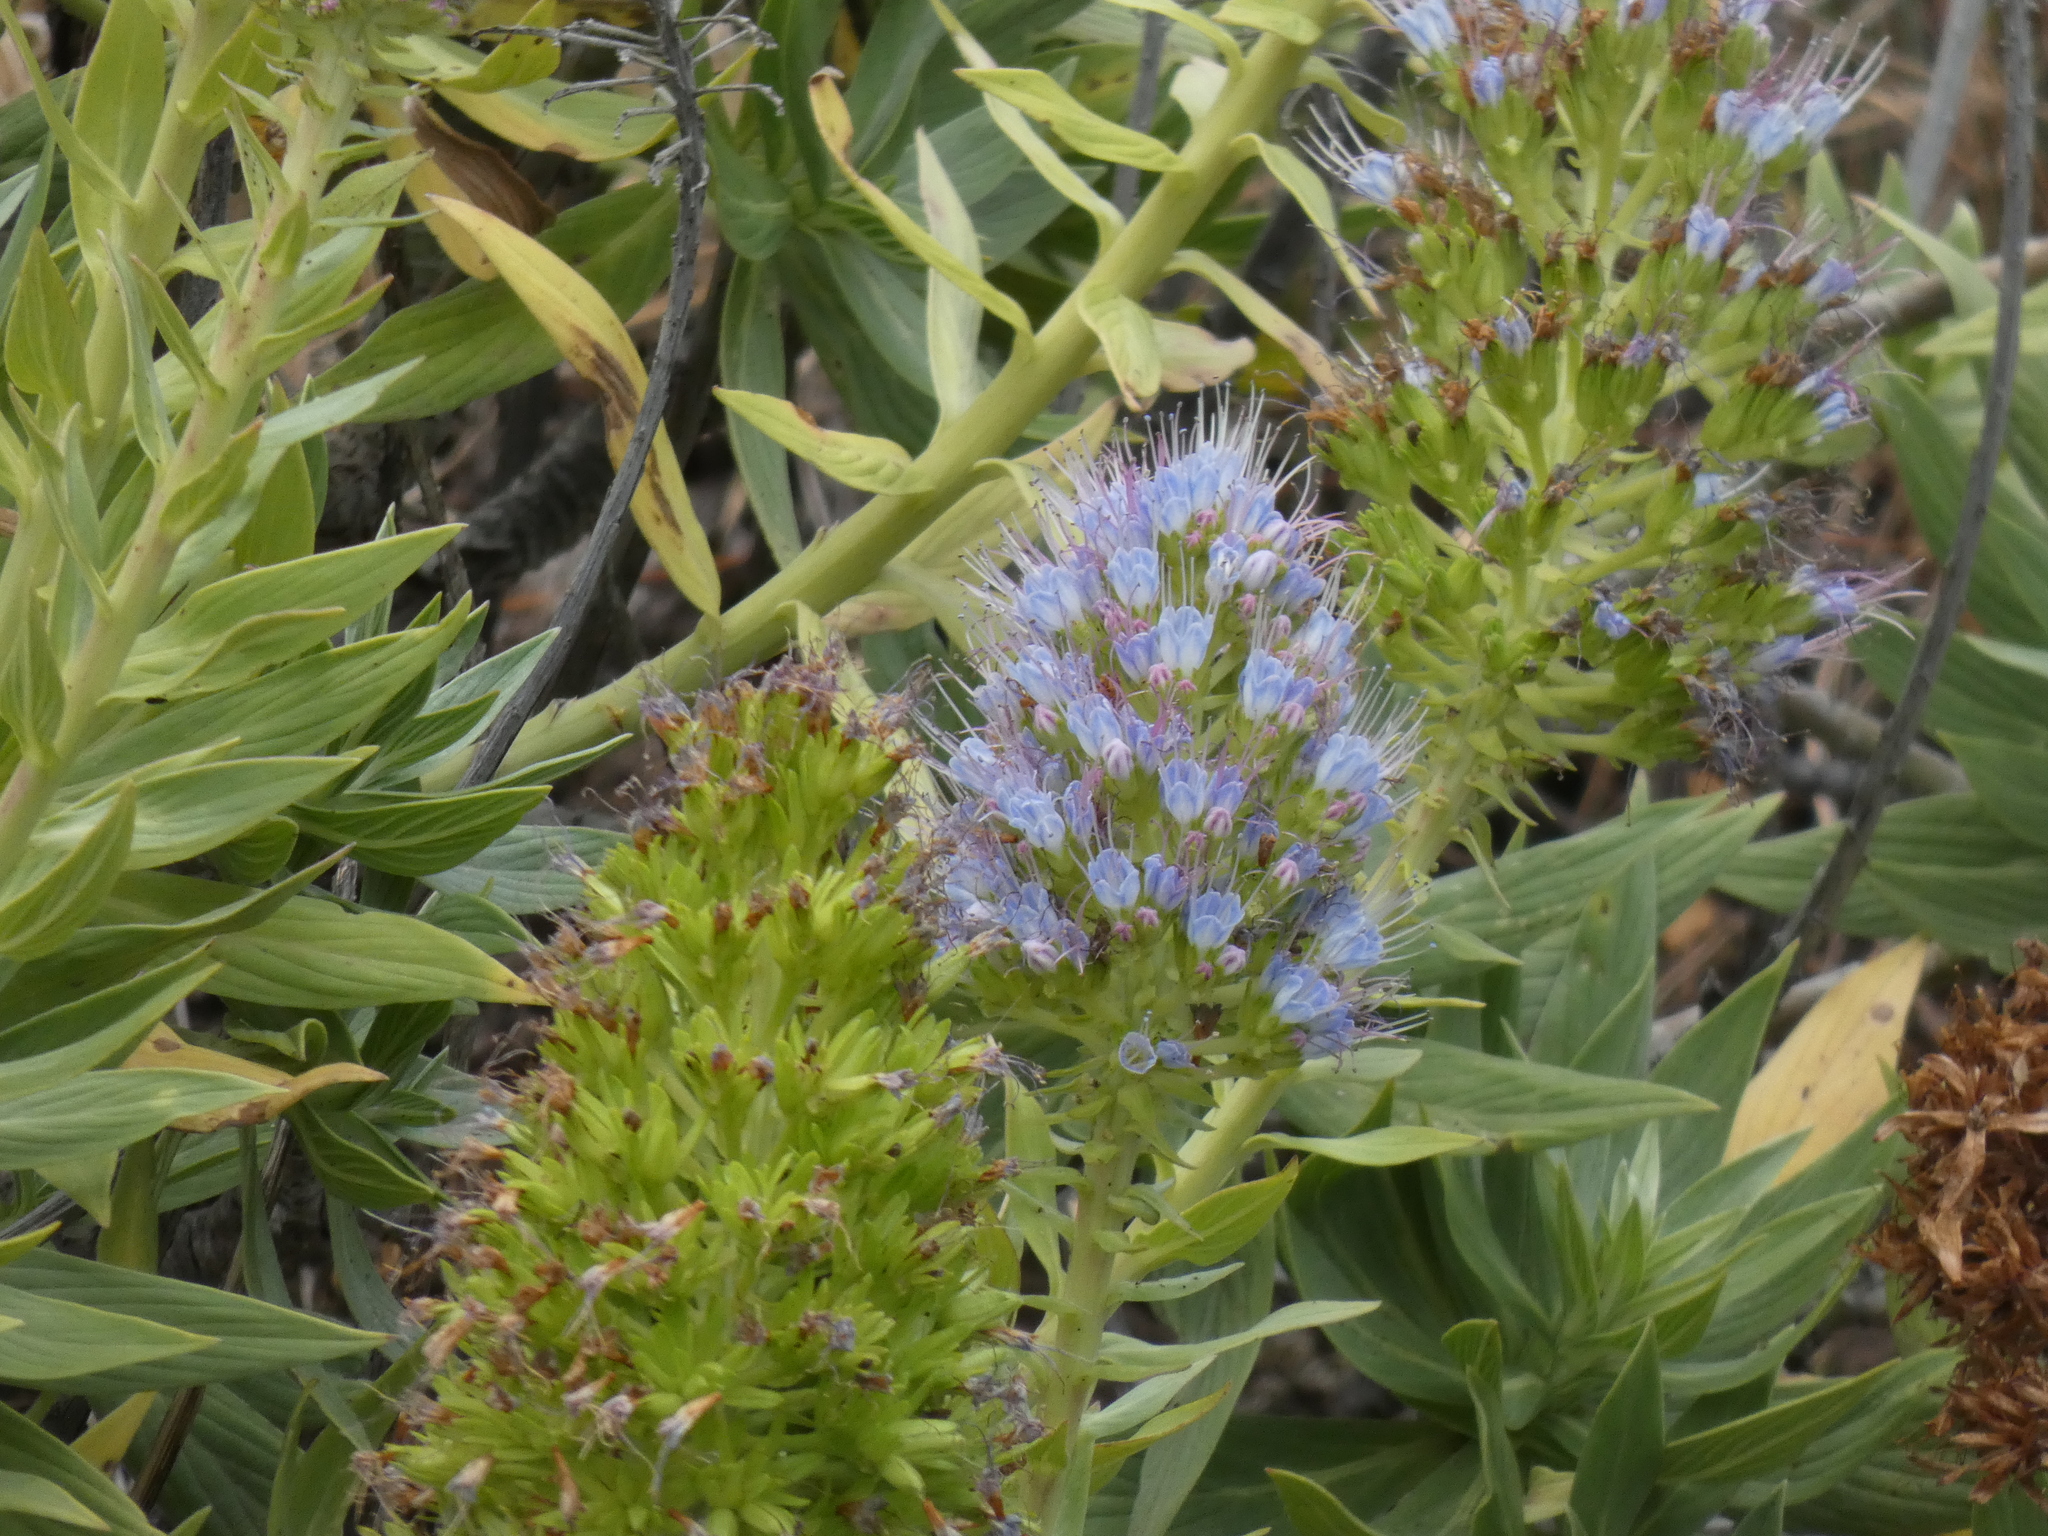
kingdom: Plantae
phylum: Tracheophyta
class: Magnoliopsida
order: Boraginales
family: Boraginaceae
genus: Echium
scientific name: Echium nervosum
